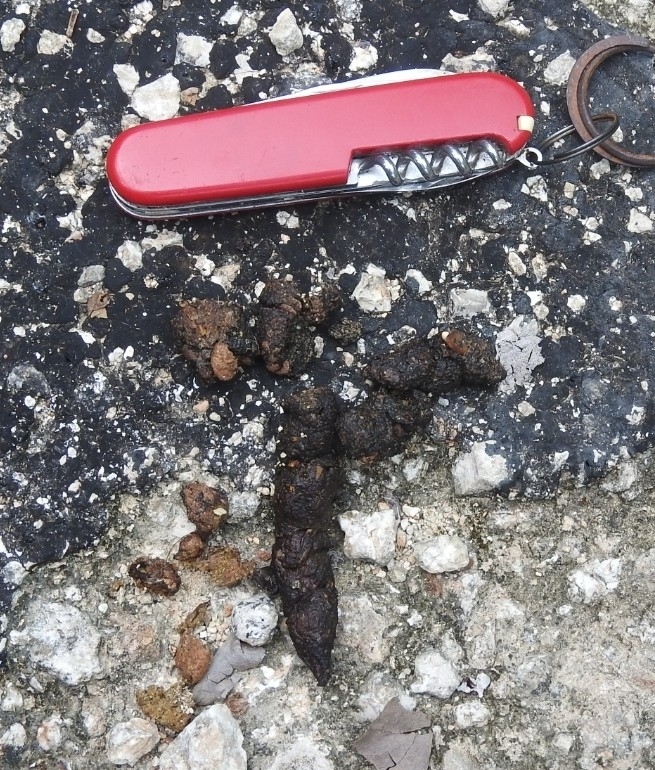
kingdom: Animalia
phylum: Chordata
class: Mammalia
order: Carnivora
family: Canidae
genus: Urocyon
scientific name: Urocyon cinereoargenteus
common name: Gray fox
